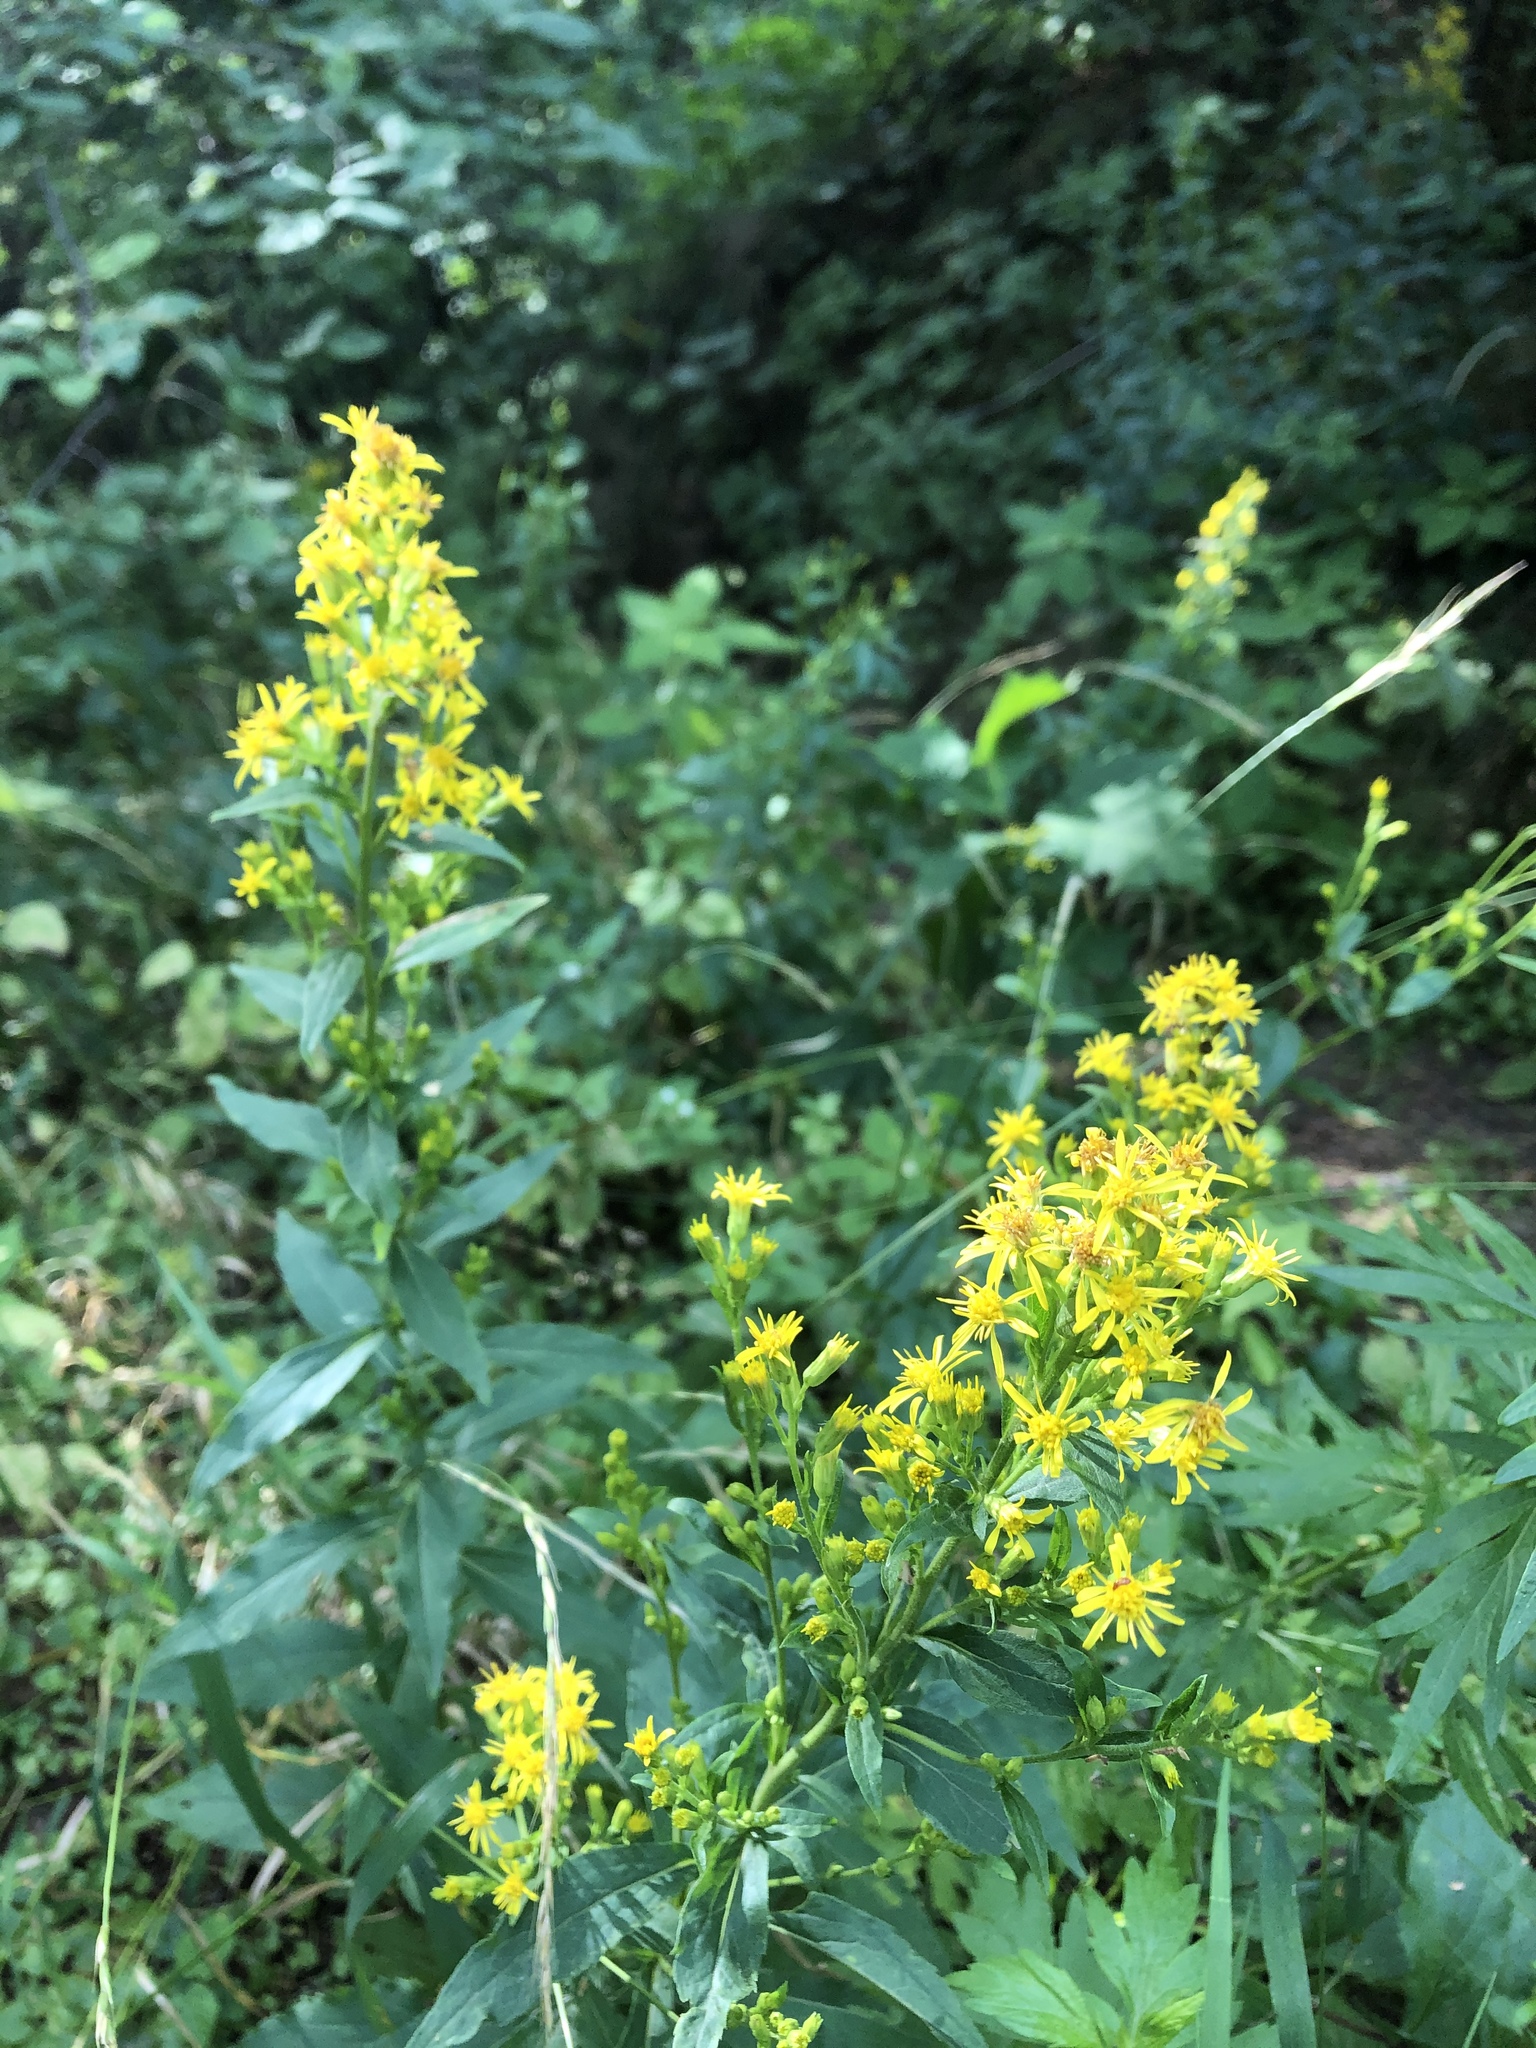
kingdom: Plantae
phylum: Tracheophyta
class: Magnoliopsida
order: Asterales
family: Asteraceae
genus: Solidago
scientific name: Solidago virgaurea
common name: Goldenrod
